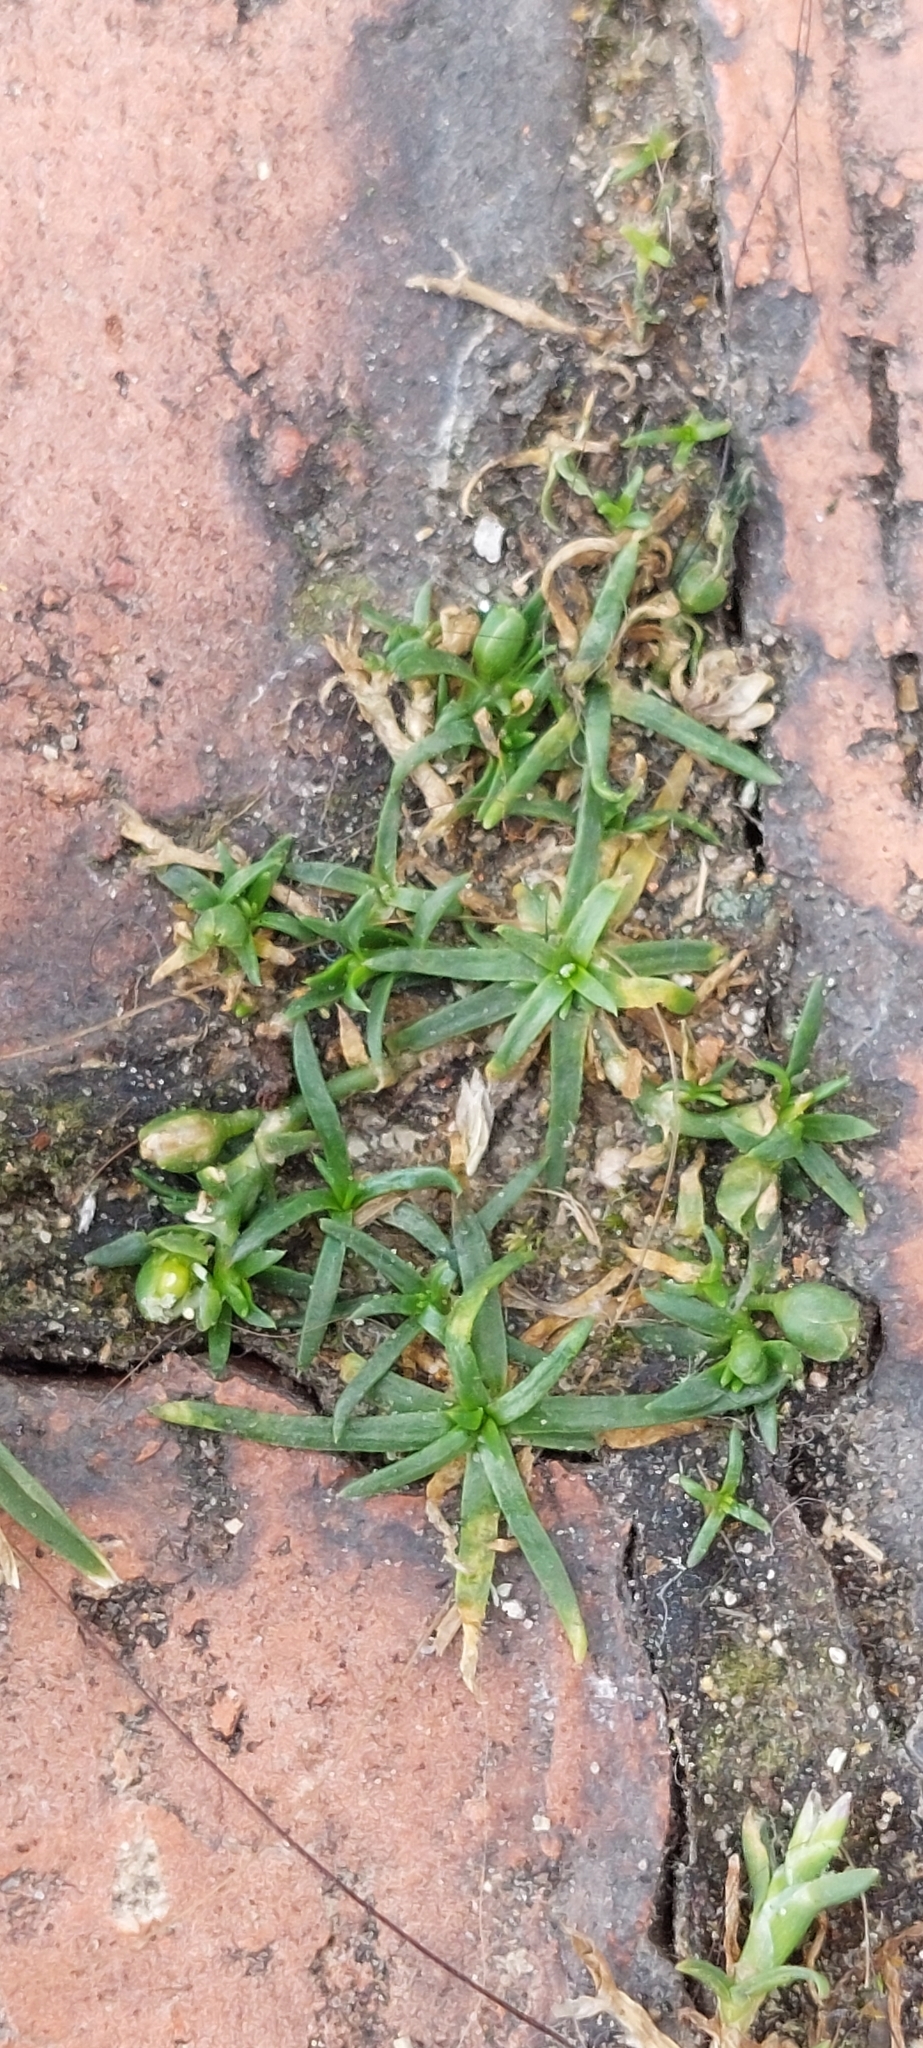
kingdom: Plantae
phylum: Tracheophyta
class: Magnoliopsida
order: Caryophyllales
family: Caryophyllaceae
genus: Sagina
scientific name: Sagina procumbens
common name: Procumbent pearlwort
